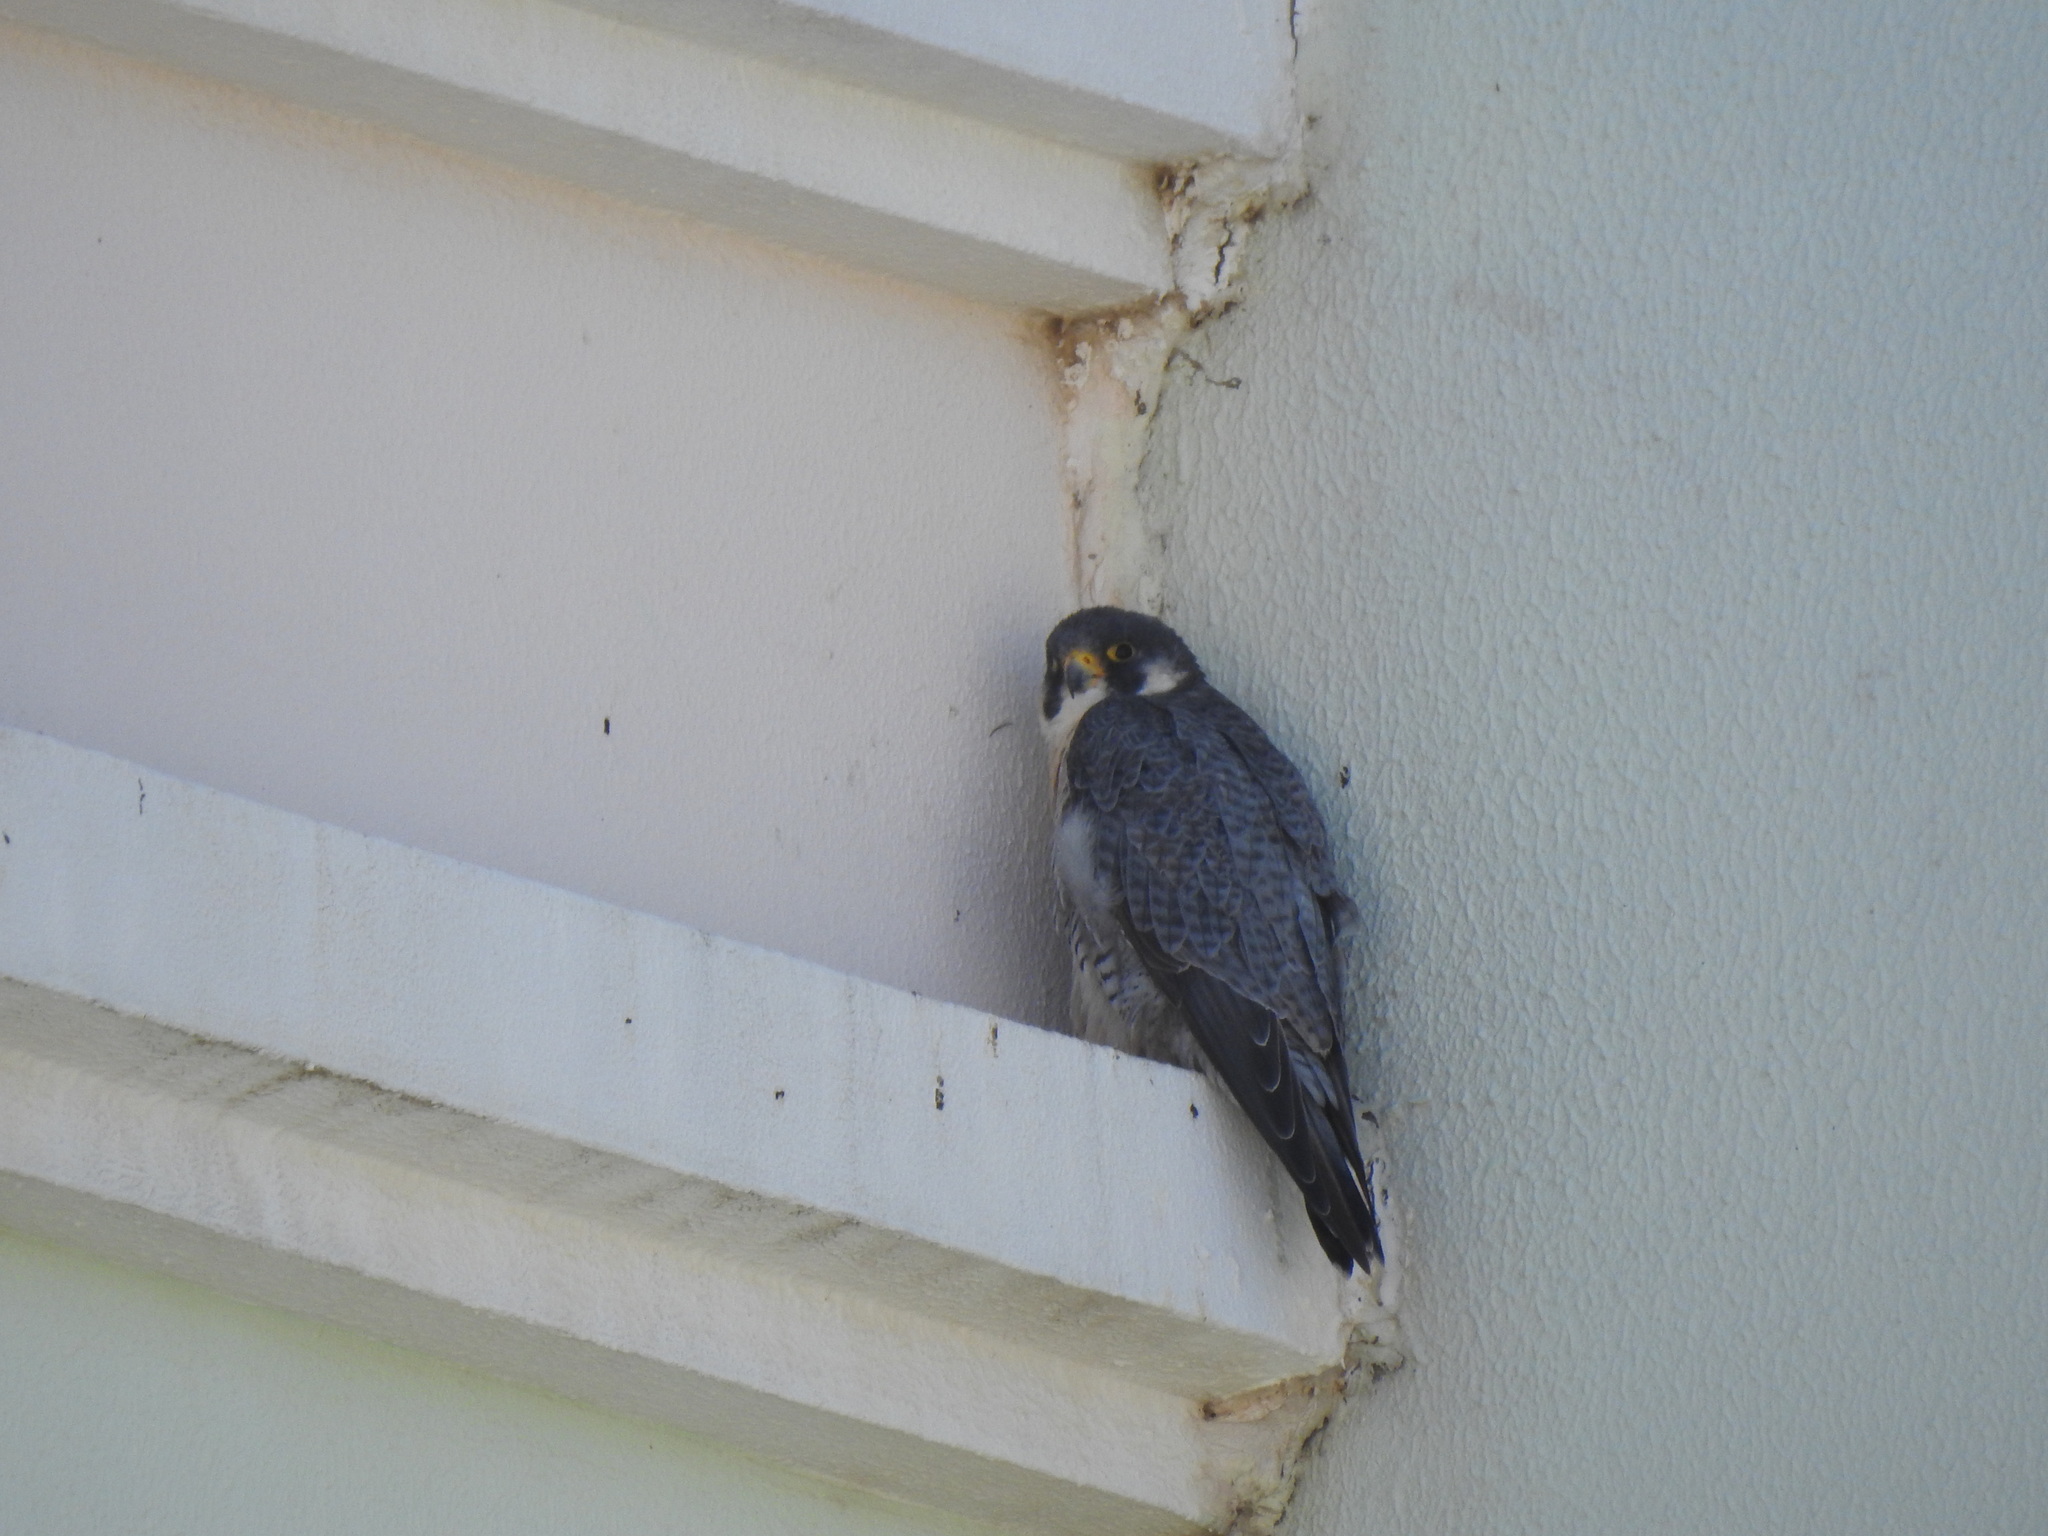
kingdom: Animalia
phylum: Chordata
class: Aves
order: Falconiformes
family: Falconidae
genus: Falco
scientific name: Falco peregrinus
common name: Peregrine falcon
